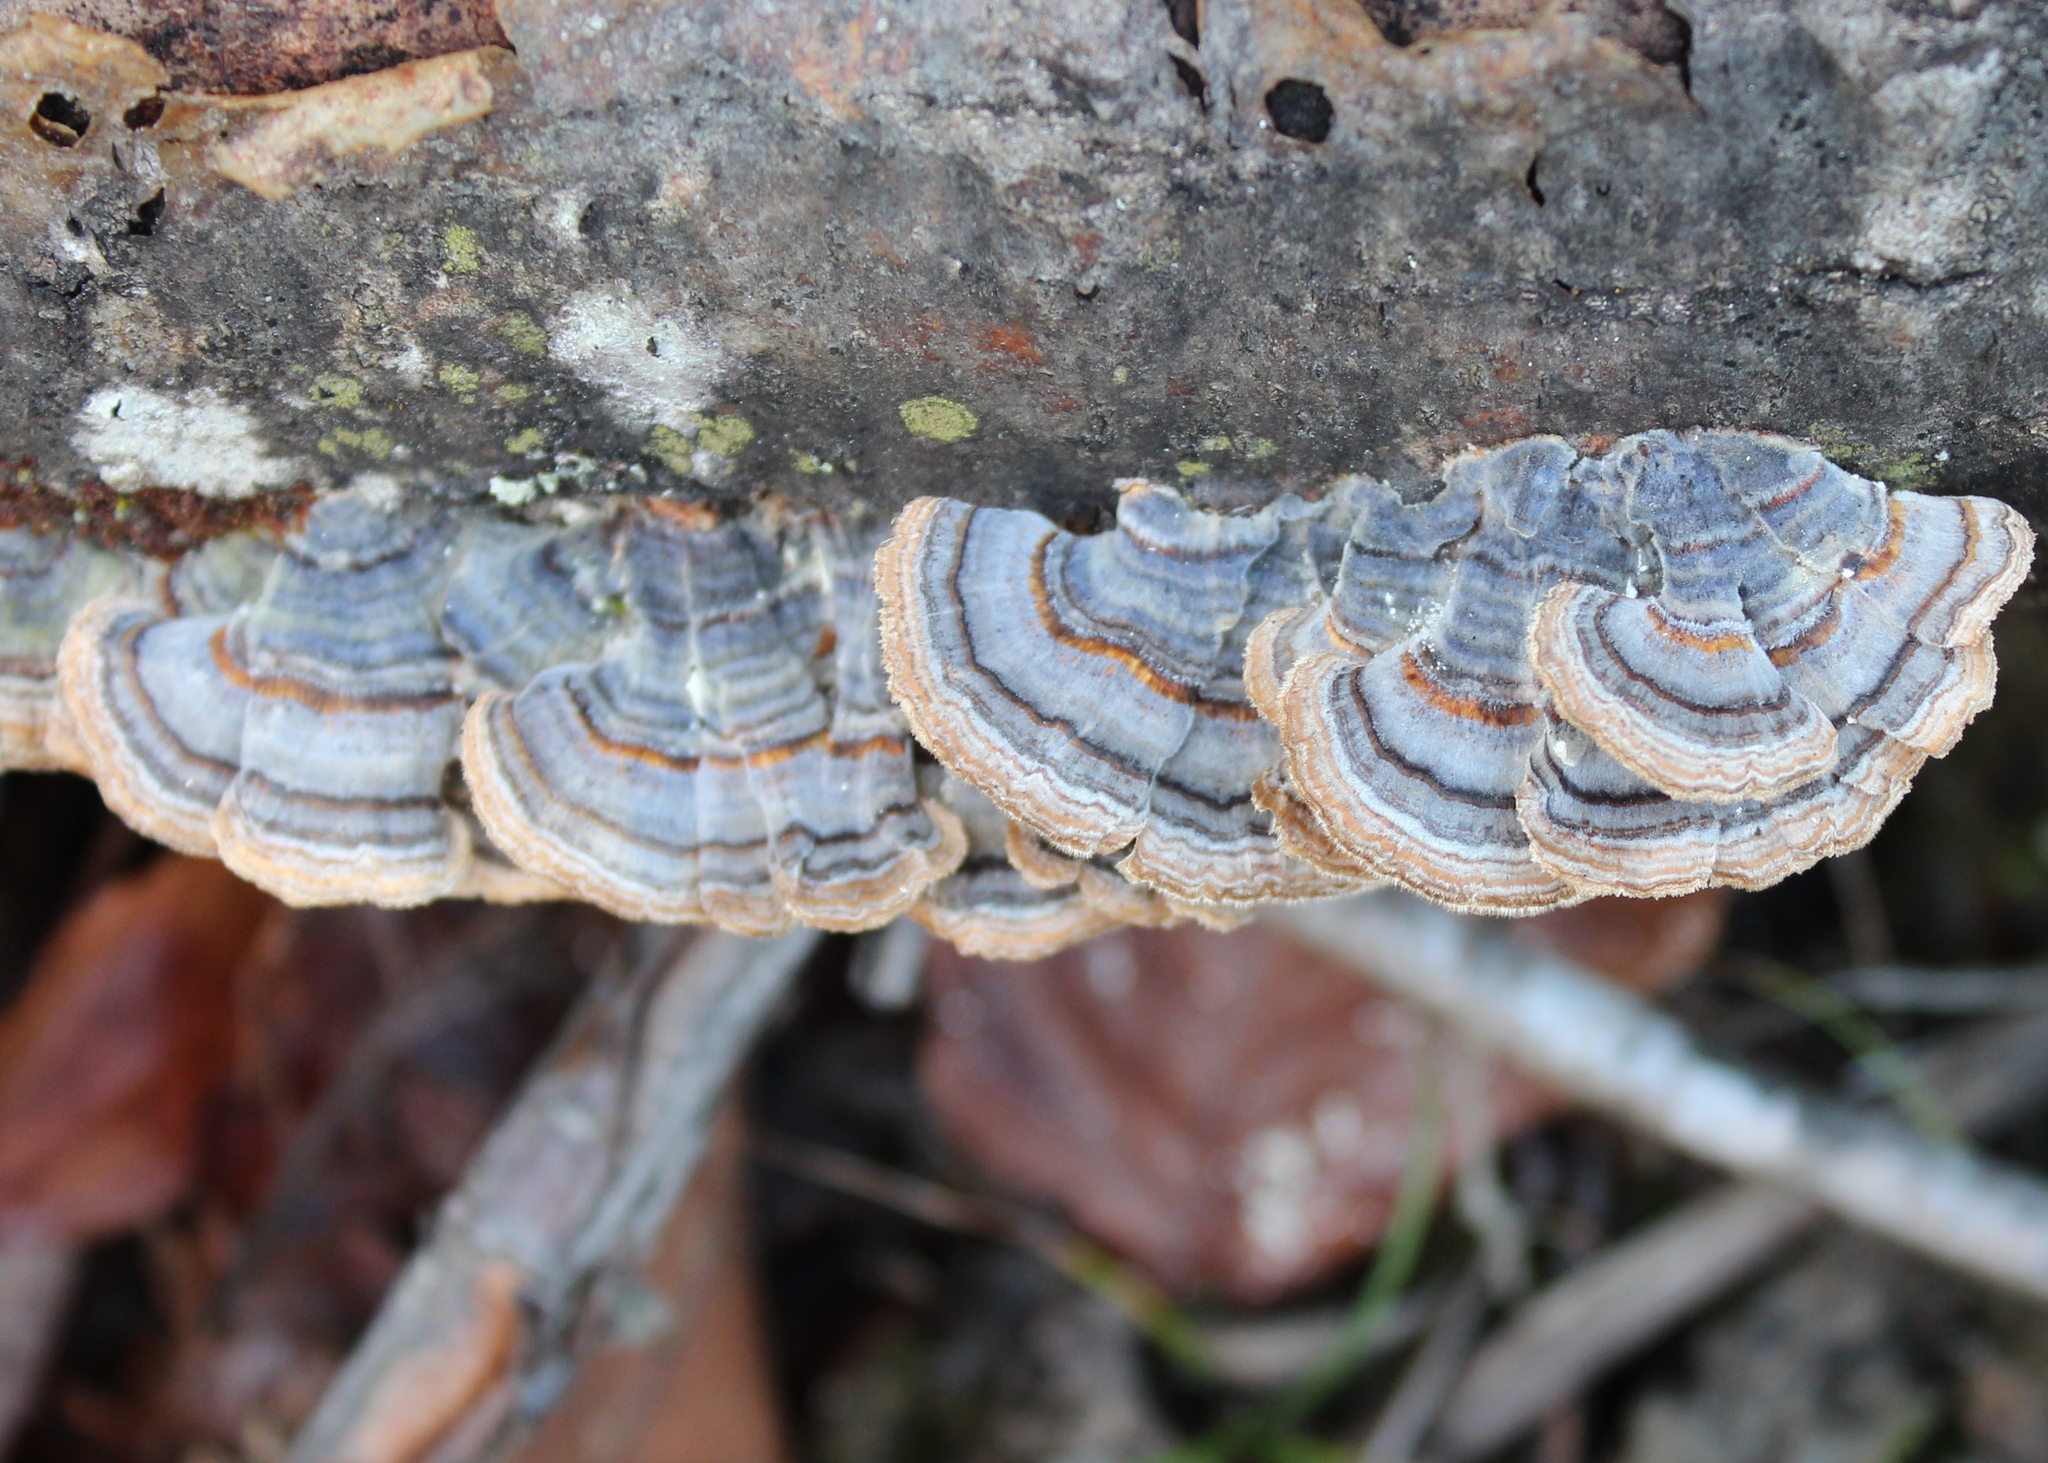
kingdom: Fungi
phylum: Basidiomycota
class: Agaricomycetes
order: Polyporales
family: Polyporaceae
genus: Trametes
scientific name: Trametes versicolor
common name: Turkeytail
